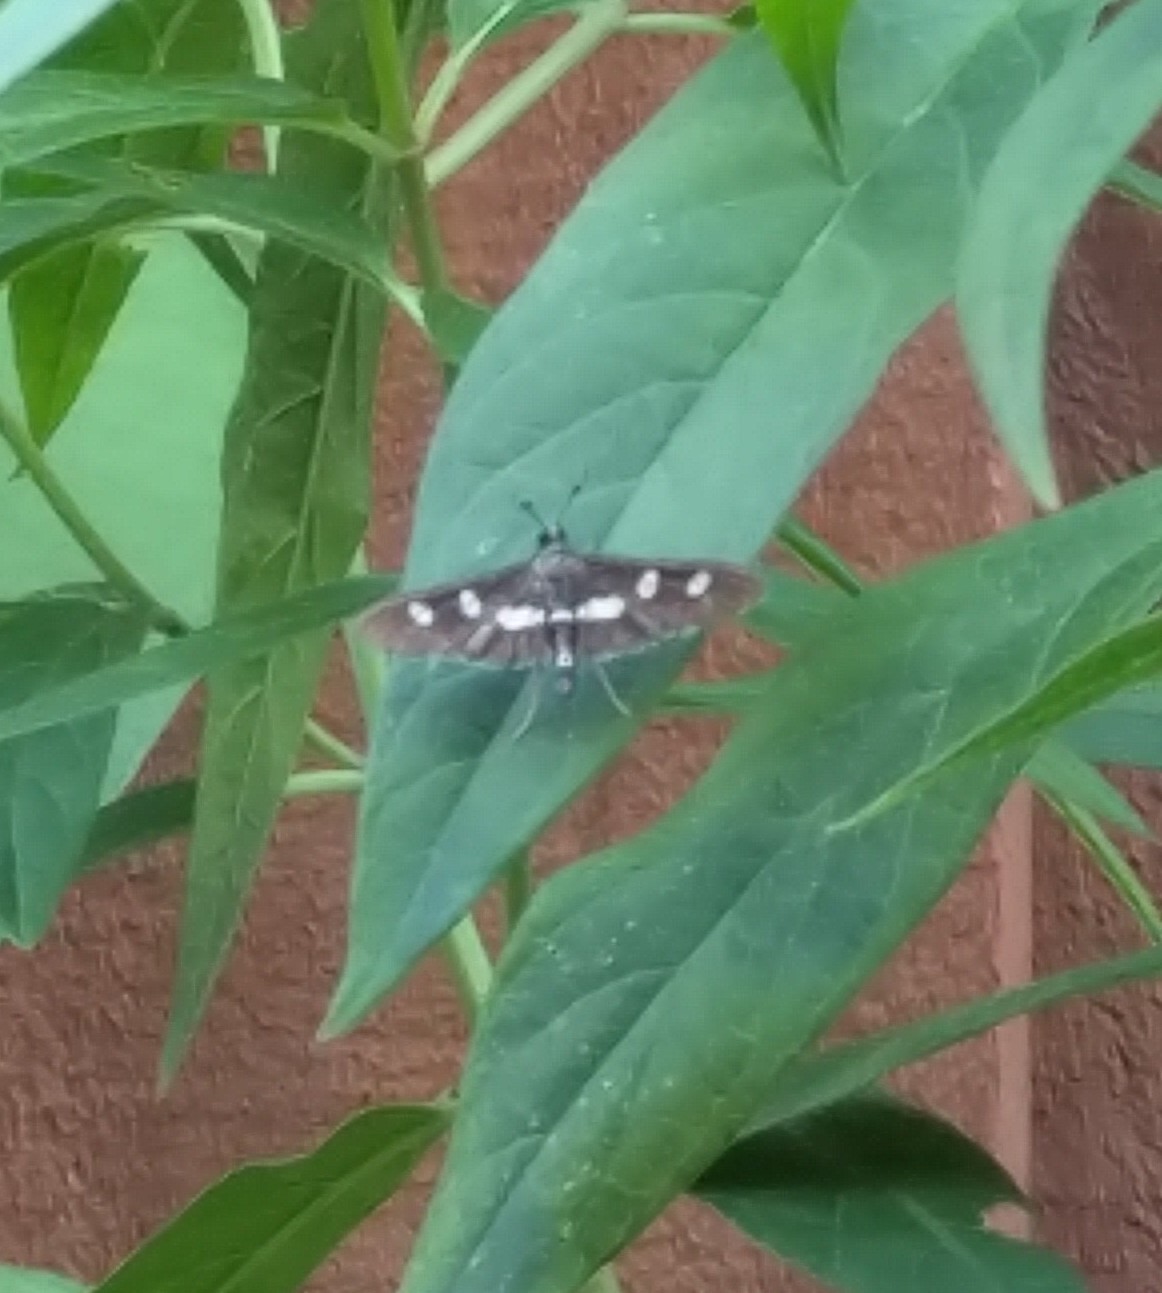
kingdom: Animalia
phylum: Arthropoda
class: Insecta
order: Lepidoptera
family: Crambidae
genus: Desmia
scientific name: Desmia
